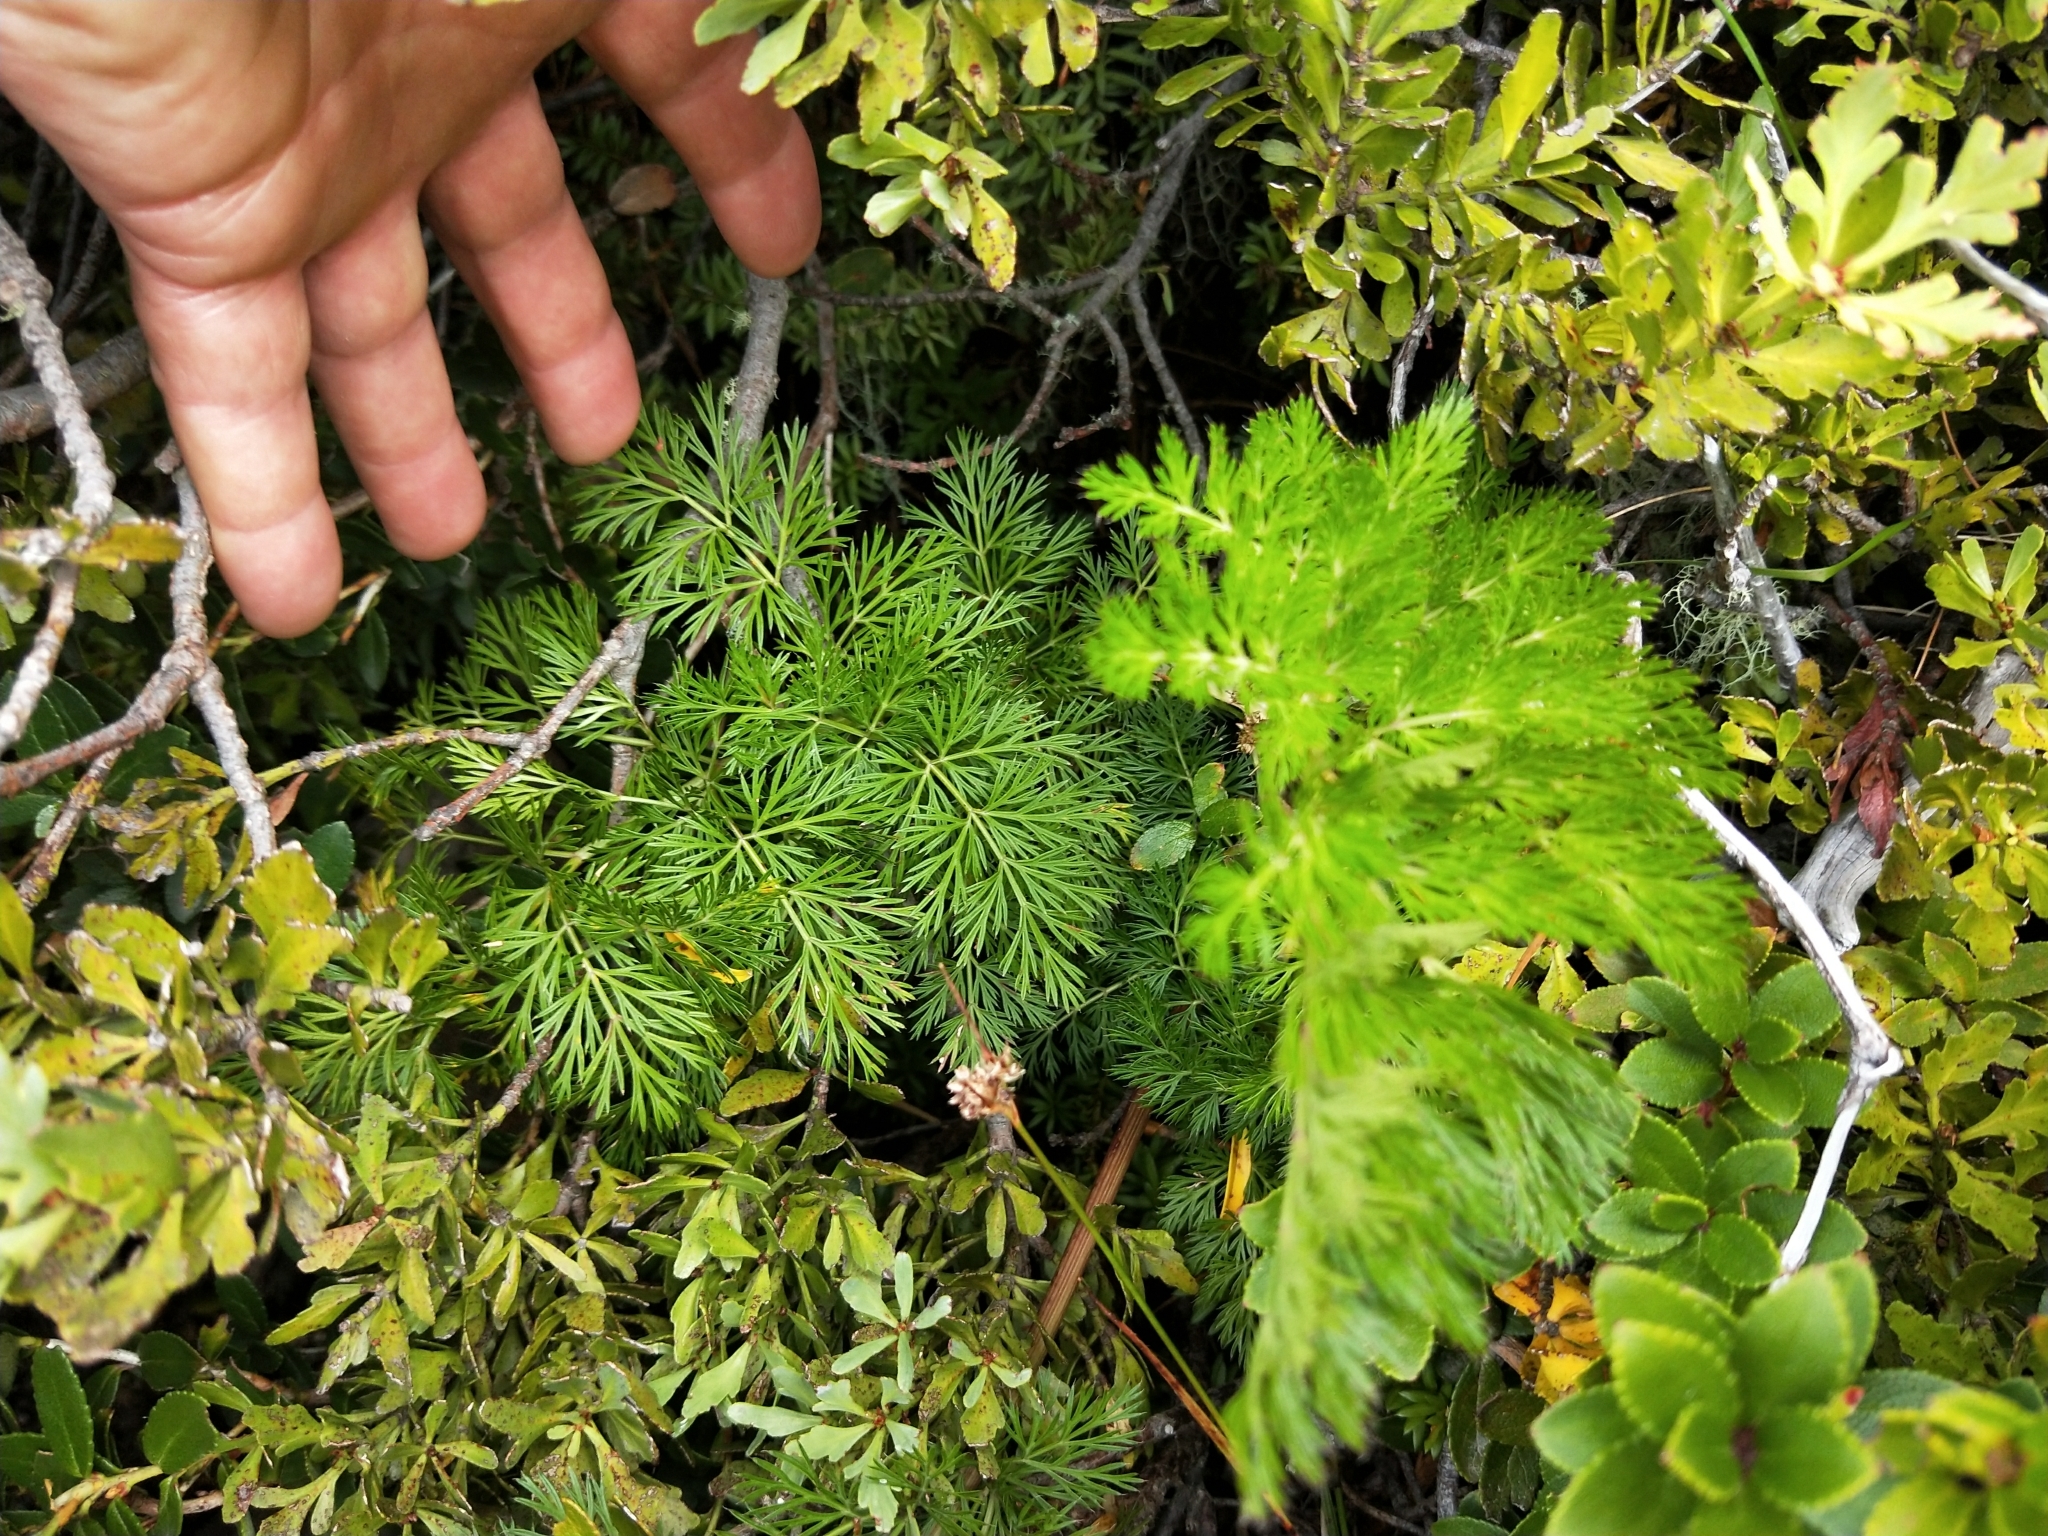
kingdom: Plantae
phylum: Tracheophyta
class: Magnoliopsida
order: Apiales
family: Apiaceae
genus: Anisotome
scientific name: Anisotome haastii
